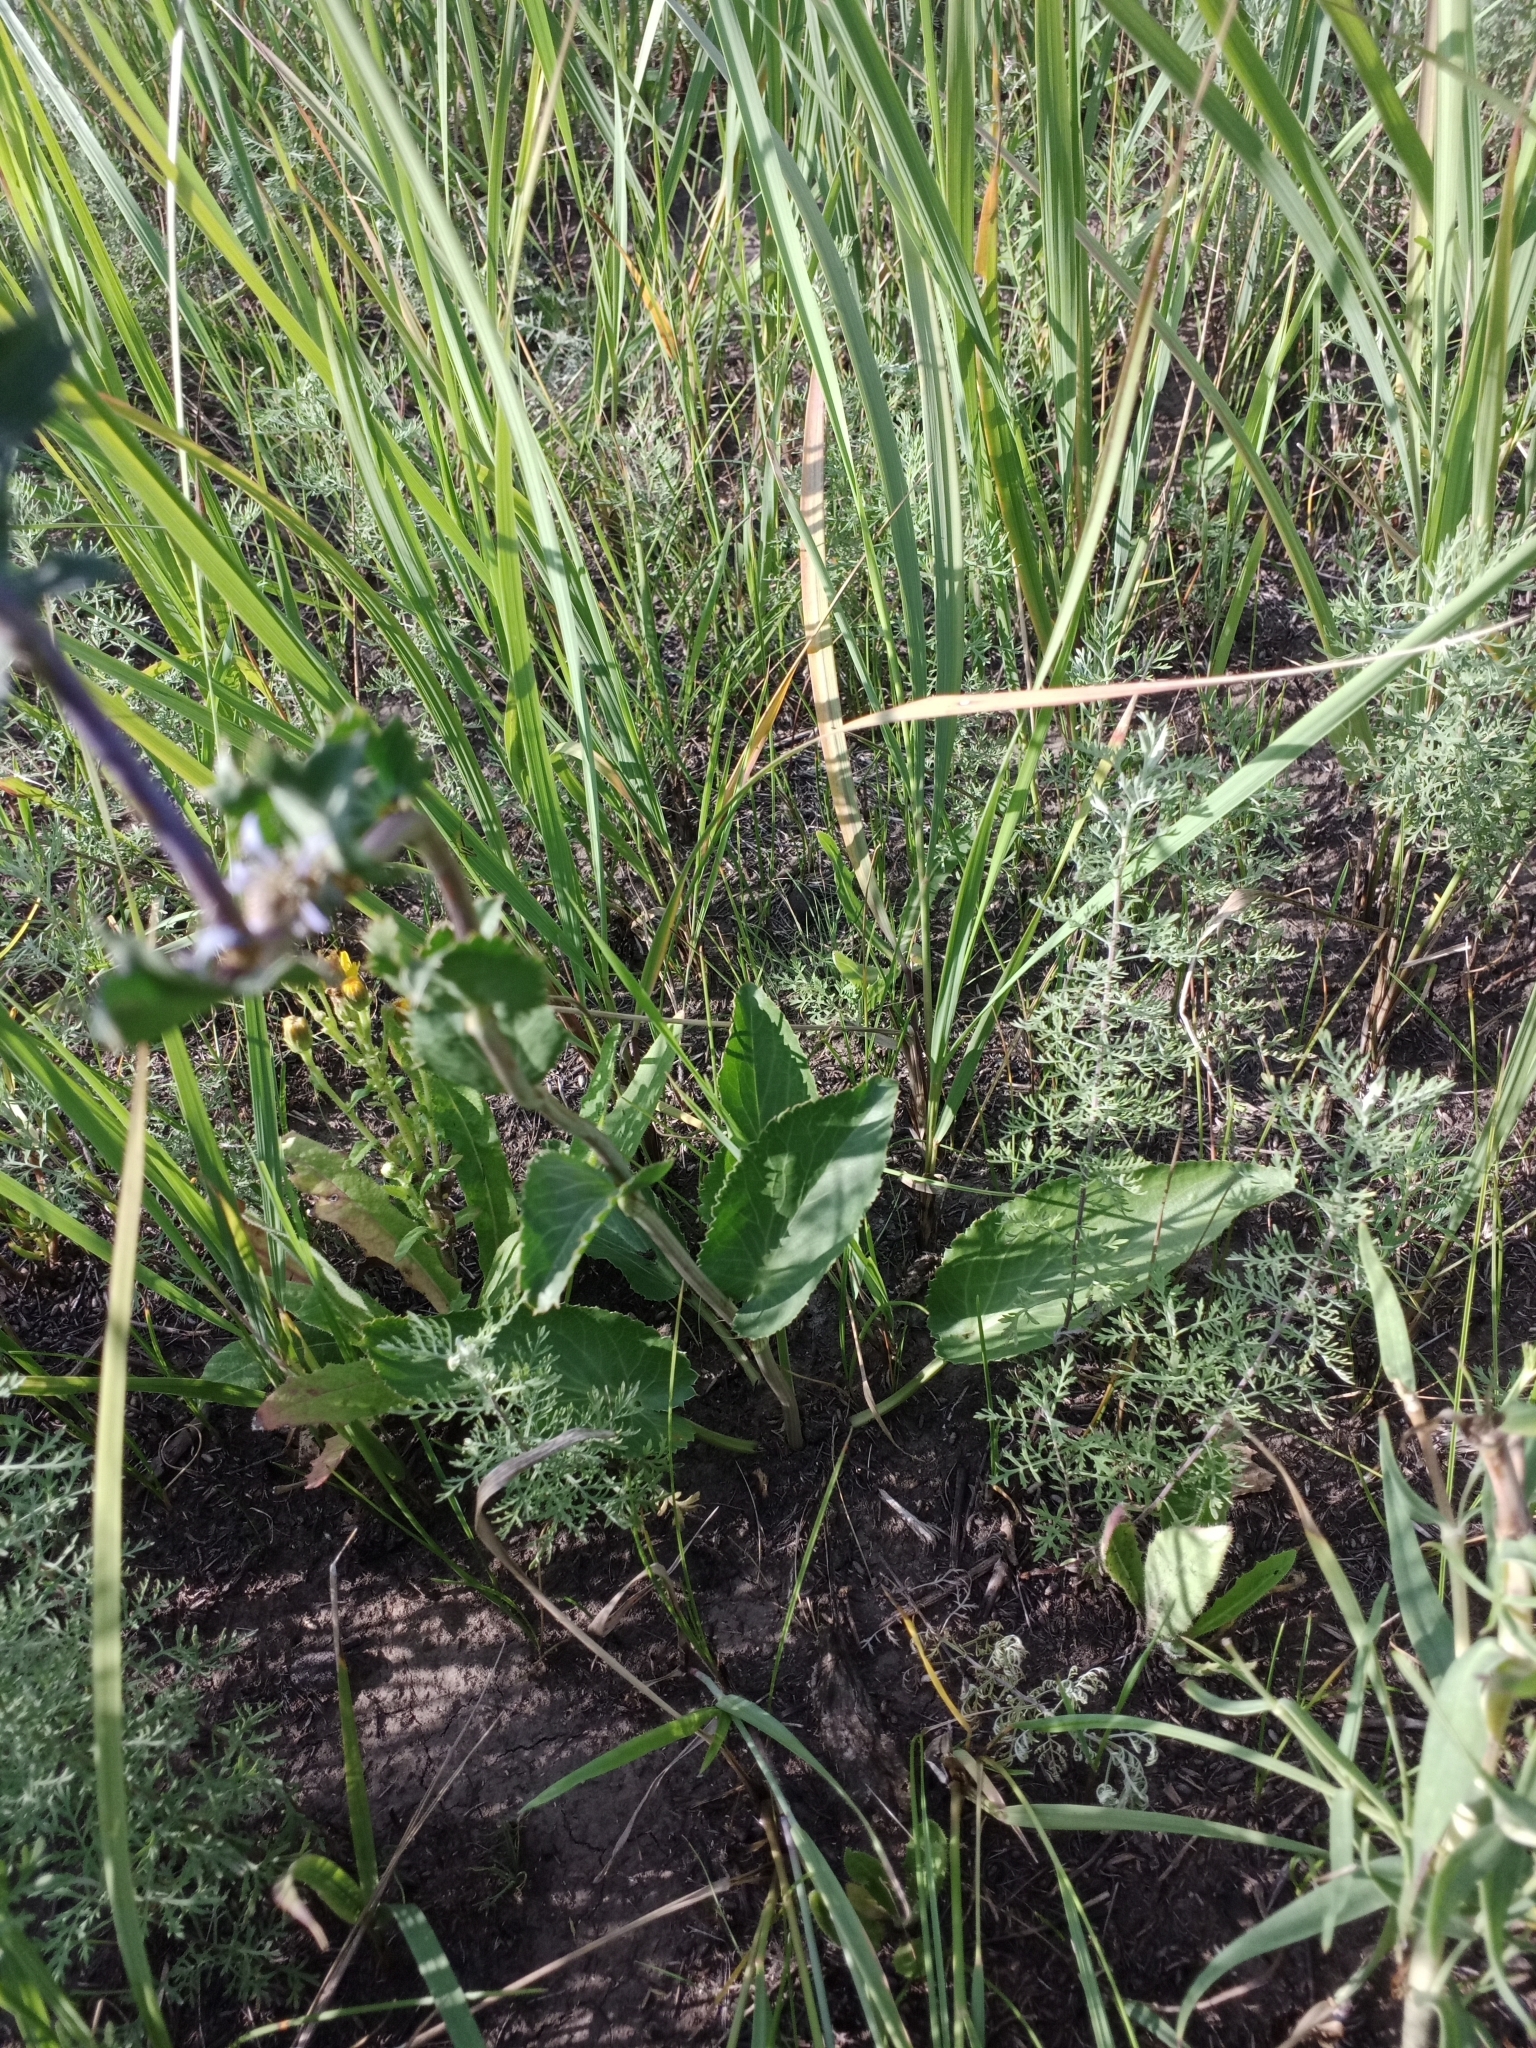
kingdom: Plantae
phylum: Tracheophyta
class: Magnoliopsida
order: Apiales
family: Apiaceae
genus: Eryngium
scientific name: Eryngium planum
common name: Blue eryngo
